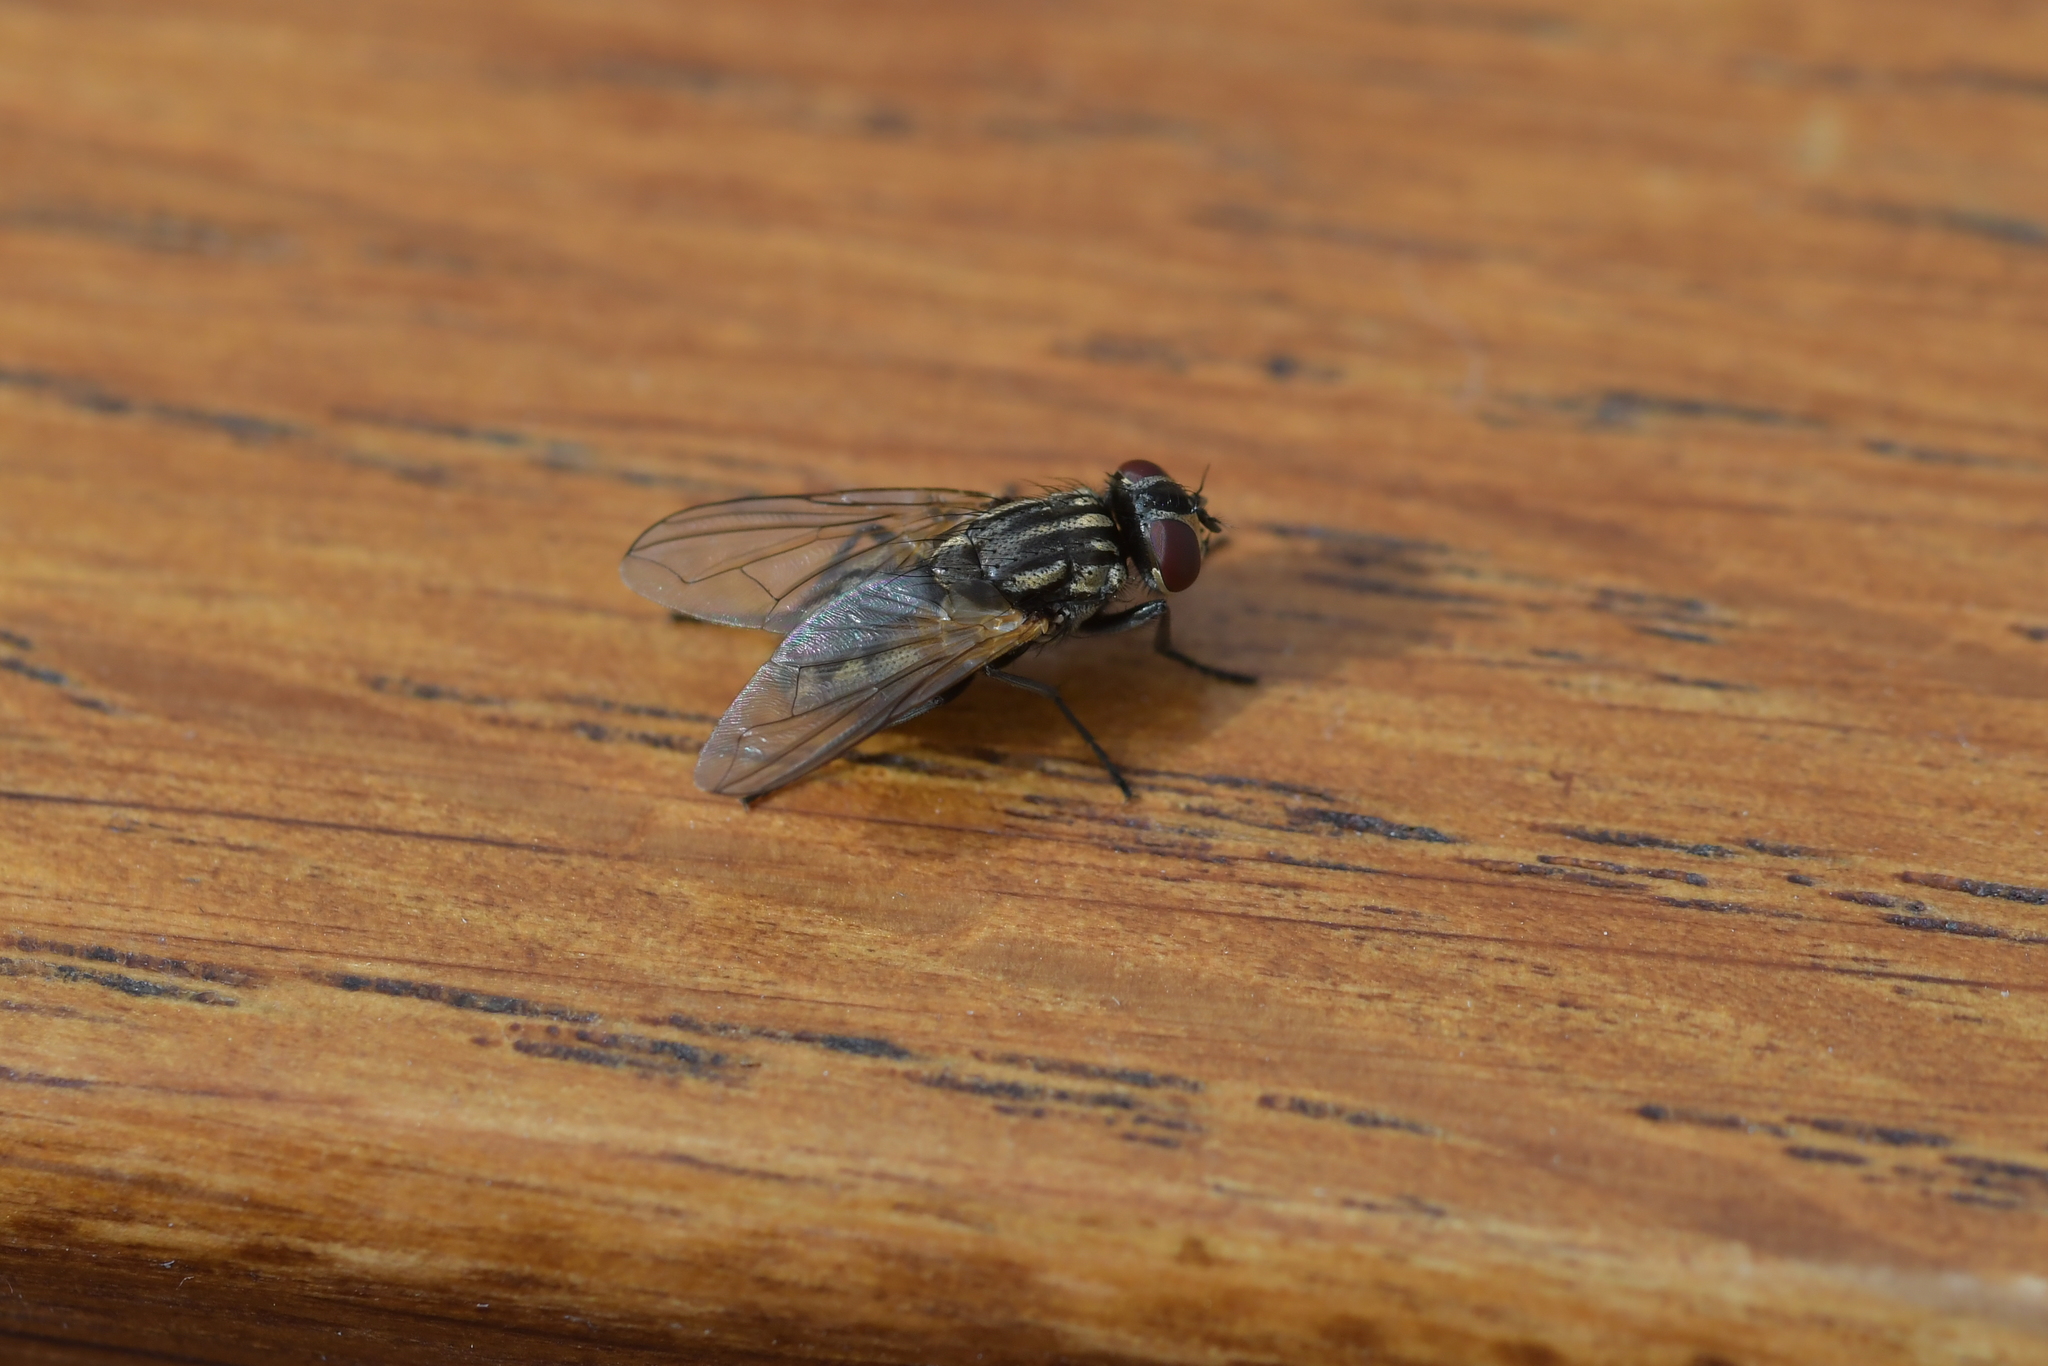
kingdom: Animalia
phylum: Arthropoda
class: Insecta
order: Diptera
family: Muscidae
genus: Musca
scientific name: Musca domestica
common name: House fly
